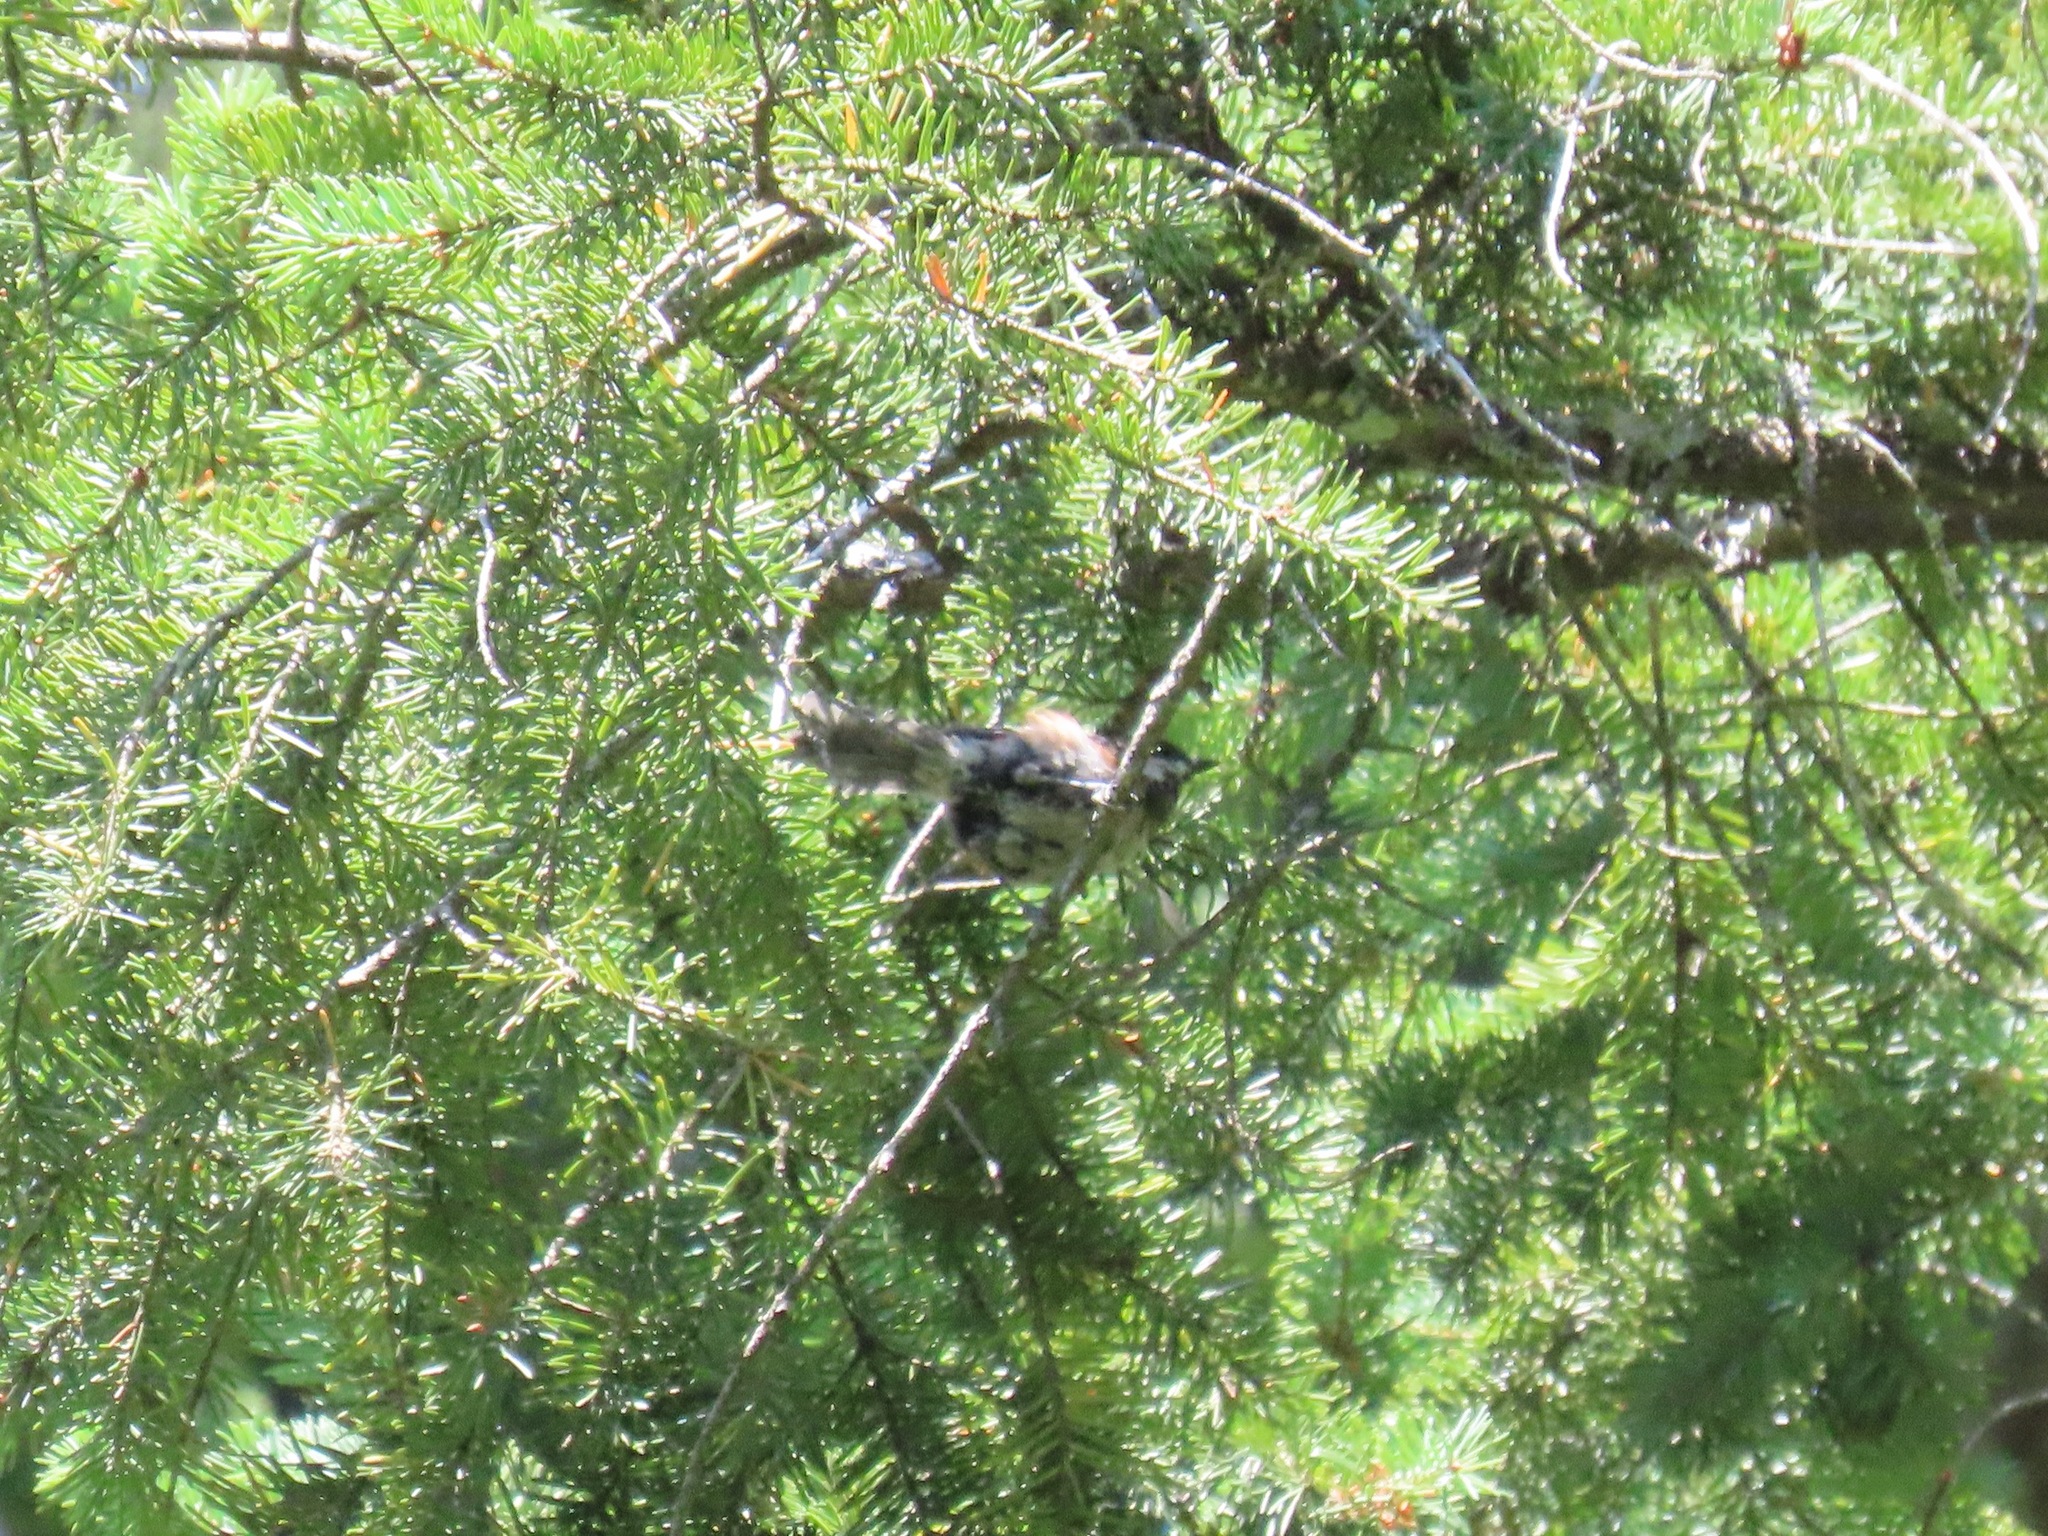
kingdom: Animalia
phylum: Chordata
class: Aves
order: Passeriformes
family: Paridae
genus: Poecile
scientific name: Poecile rufescens
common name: Chestnut-backed chickadee
